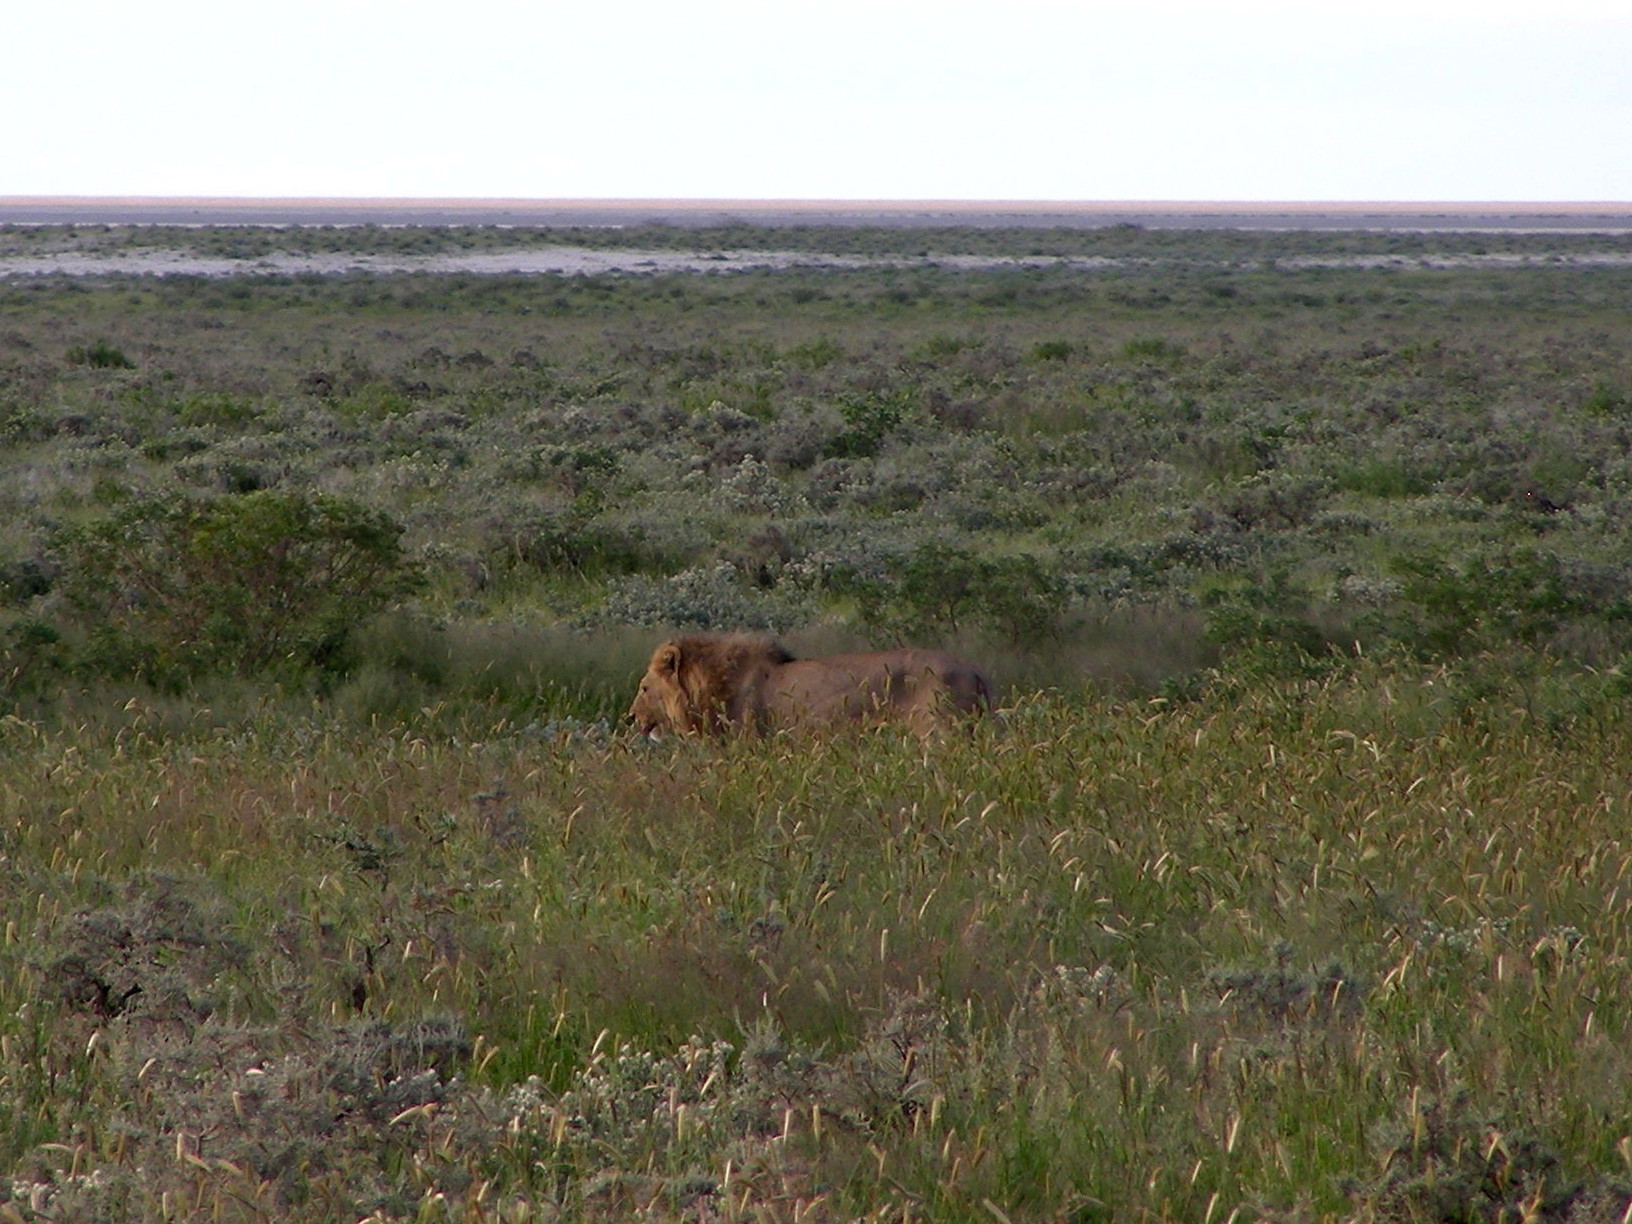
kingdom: Animalia
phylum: Chordata
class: Mammalia
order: Carnivora
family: Felidae
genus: Panthera
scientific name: Panthera leo
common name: Lion
